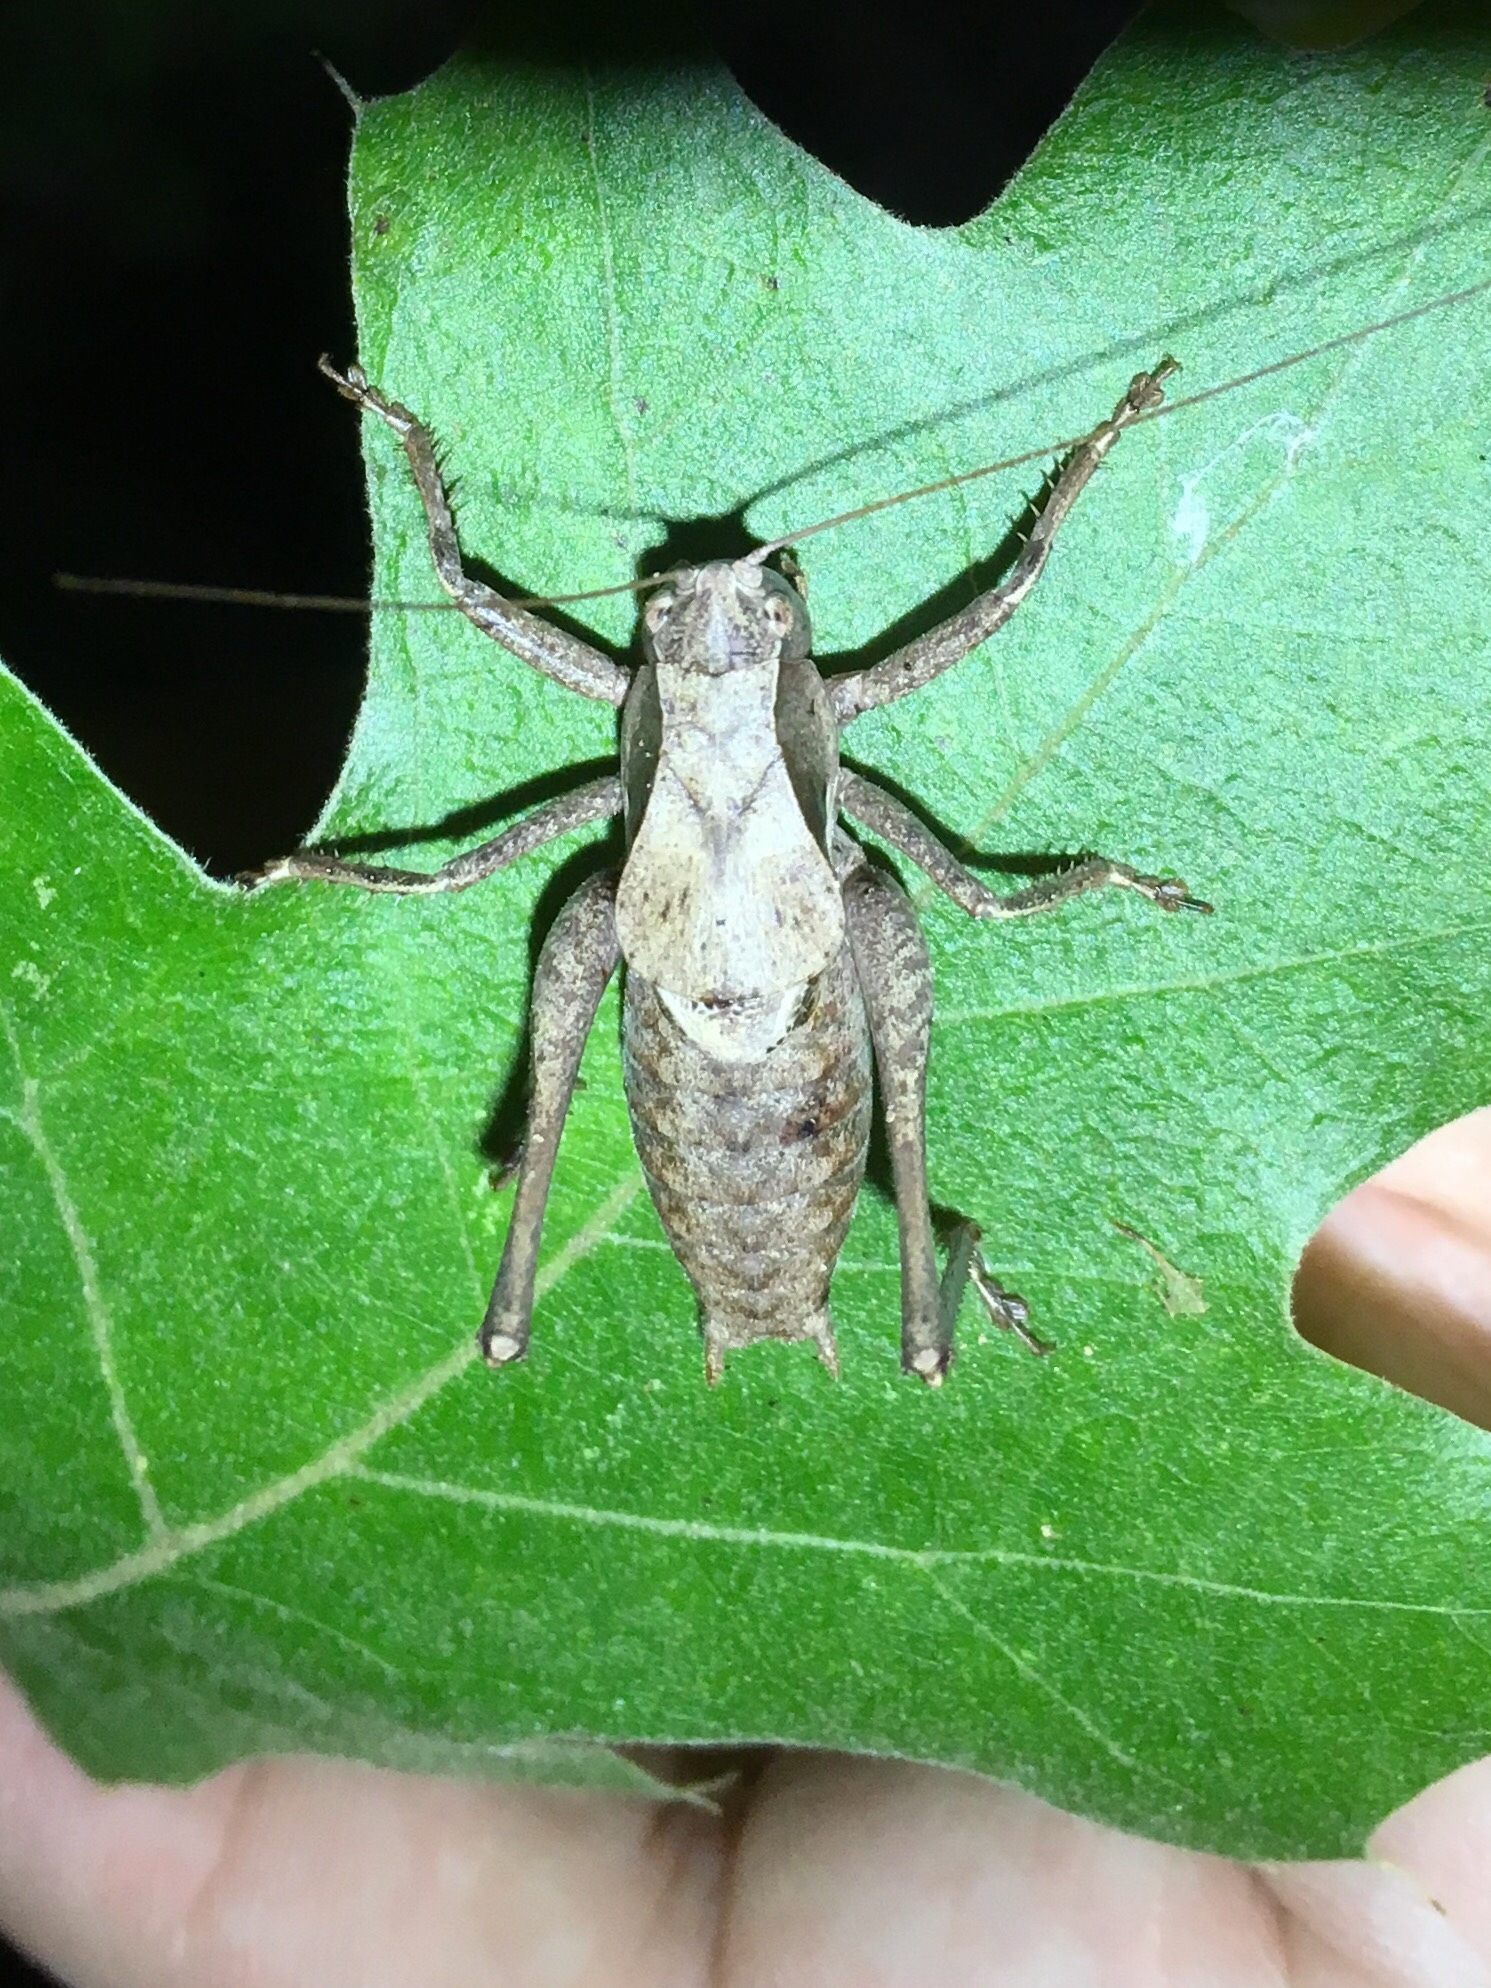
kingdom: Animalia
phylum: Arthropoda
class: Insecta
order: Orthoptera
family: Tettigoniidae
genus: Atlanticus
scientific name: Atlanticus davisi
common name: Davis's shield-bearer
